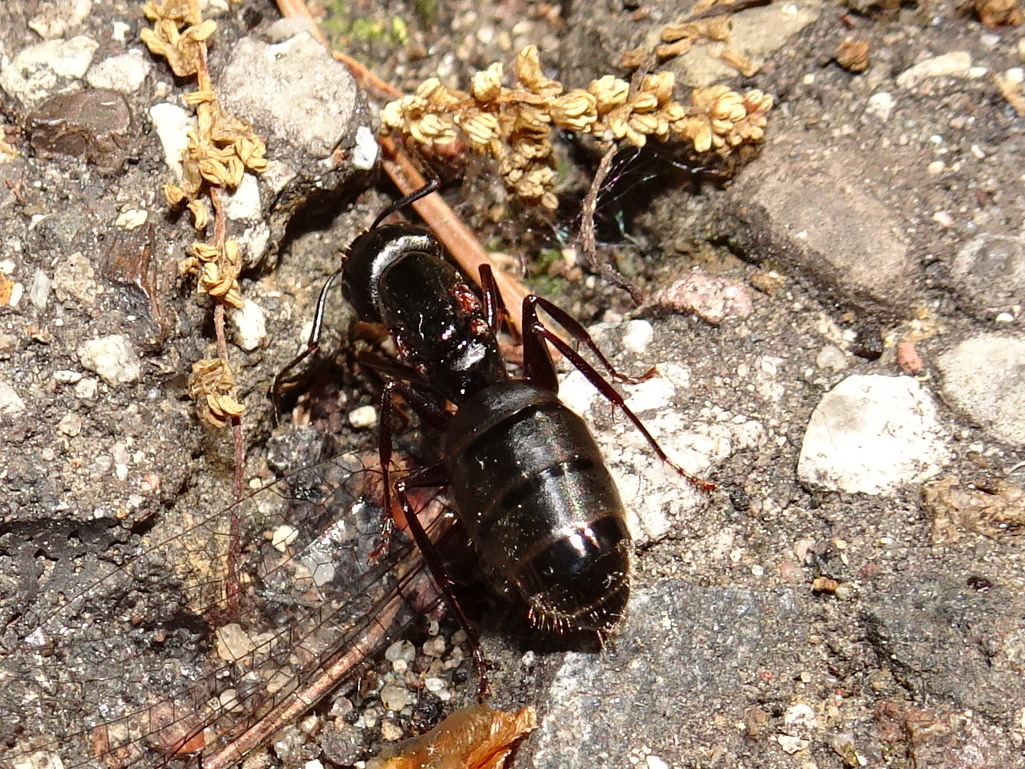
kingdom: Animalia
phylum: Arthropoda
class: Insecta
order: Hymenoptera
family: Formicidae
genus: Camponotus
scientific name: Camponotus pennsylvanicus
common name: Black carpenter ant
